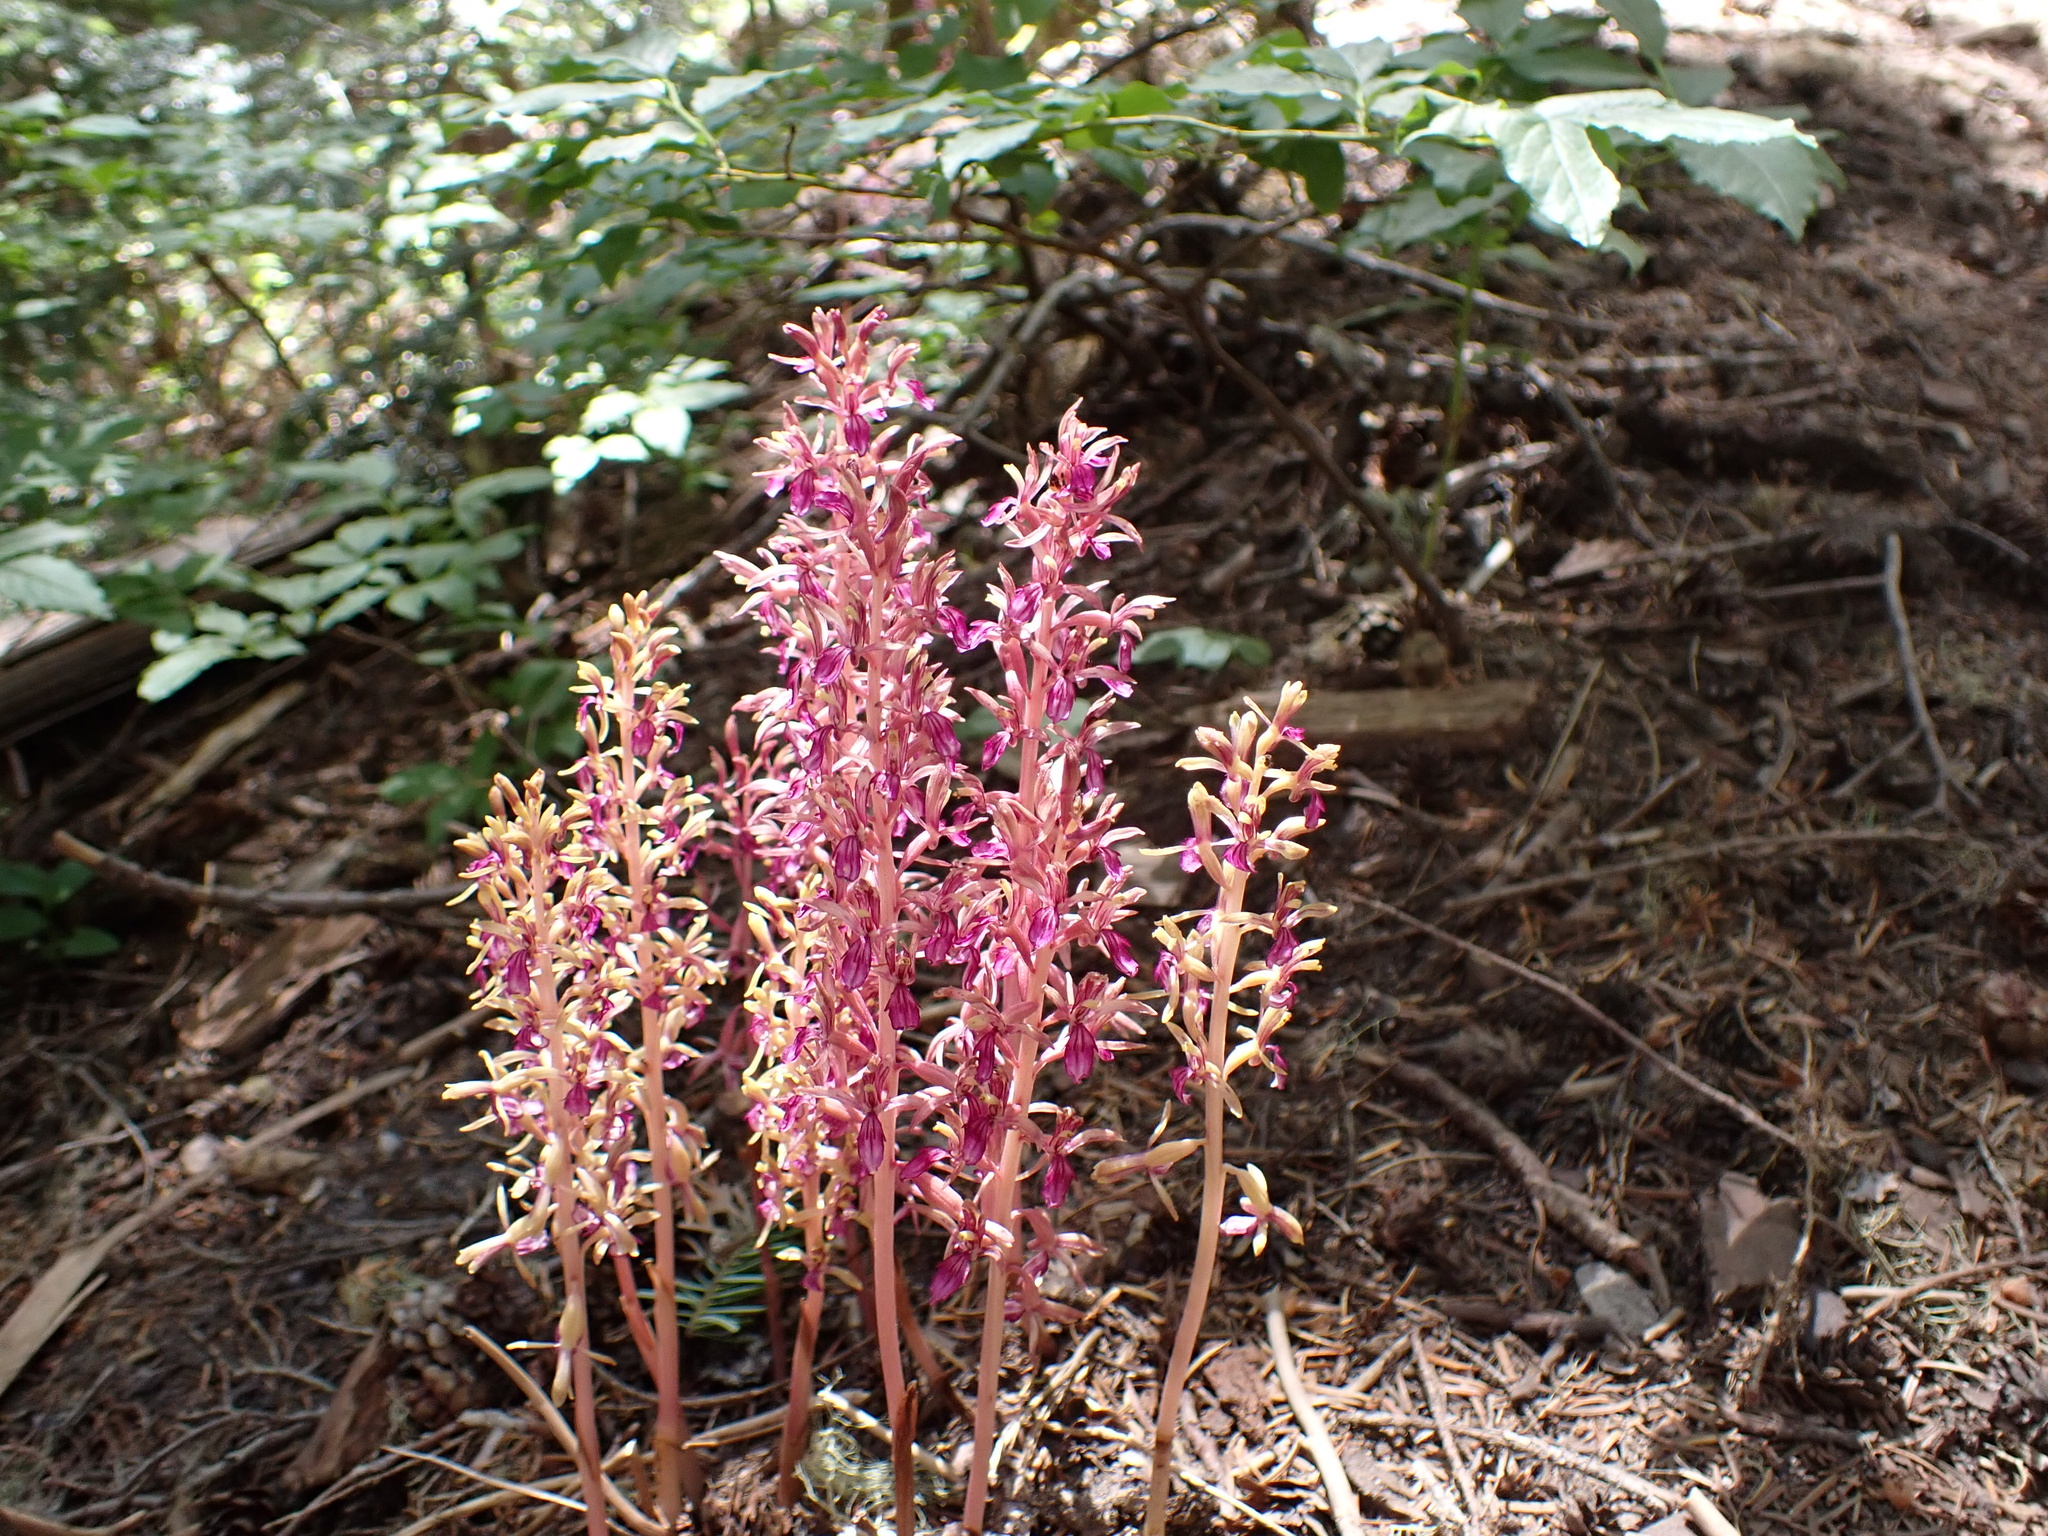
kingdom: Plantae
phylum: Tracheophyta
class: Liliopsida
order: Asparagales
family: Orchidaceae
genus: Corallorhiza
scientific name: Corallorhiza mertensiana
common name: Pacific coralroot
